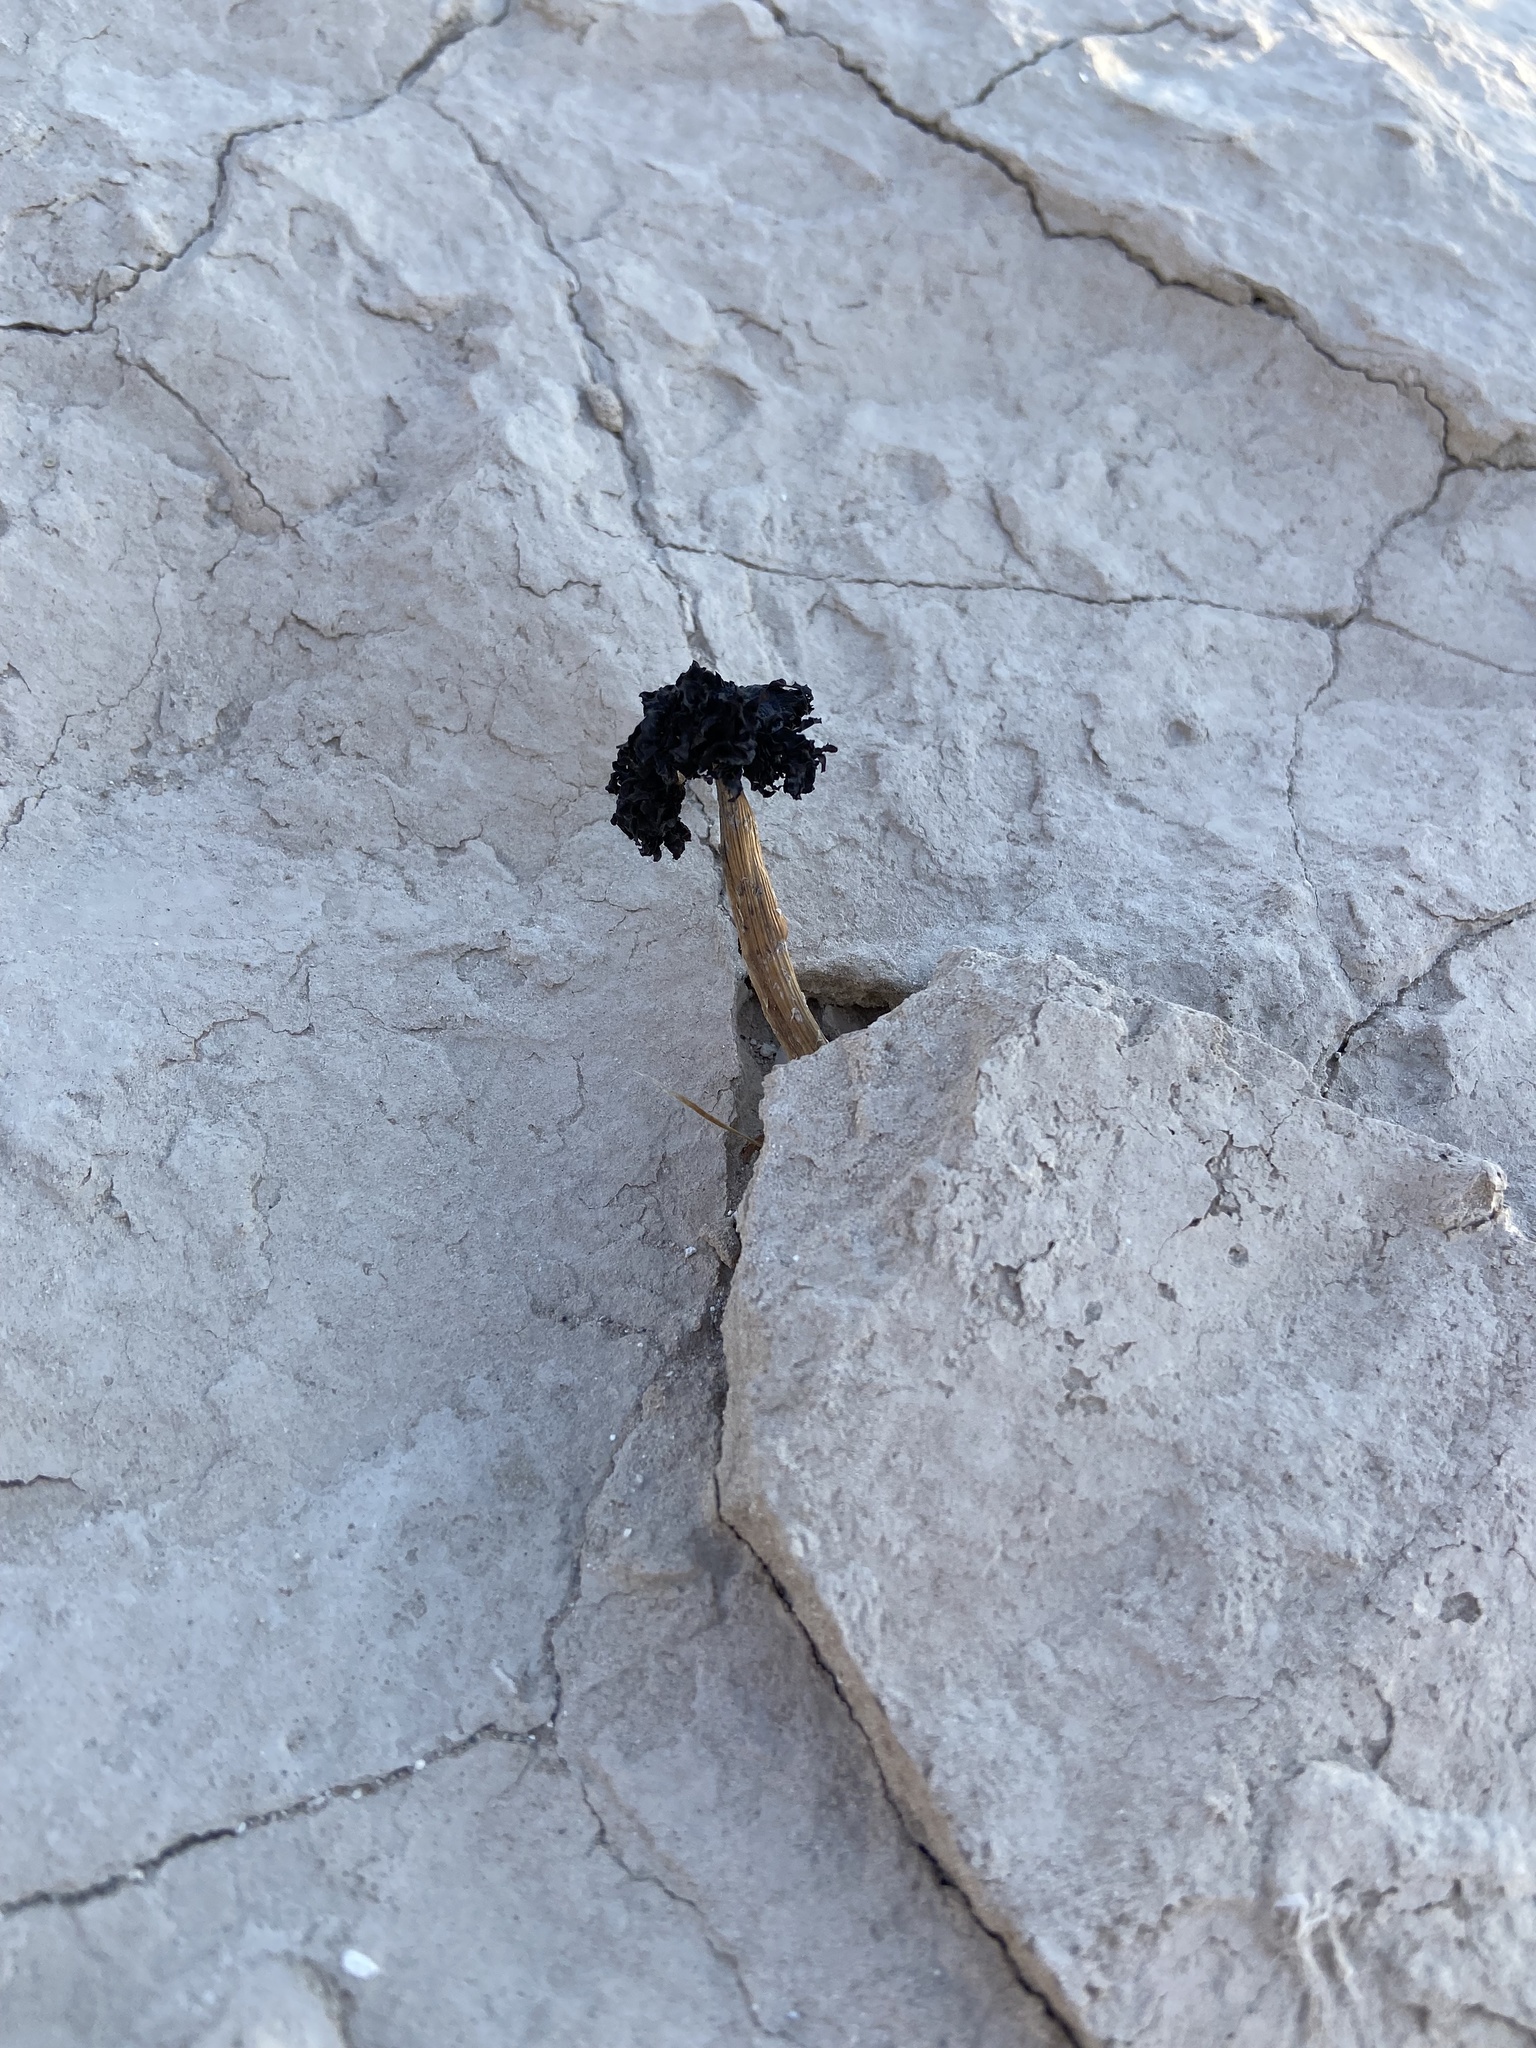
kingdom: Fungi
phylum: Basidiomycota
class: Agaricomycetes
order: Agaricales
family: Agaricaceae
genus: Montagnea
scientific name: Montagnea arenaria
